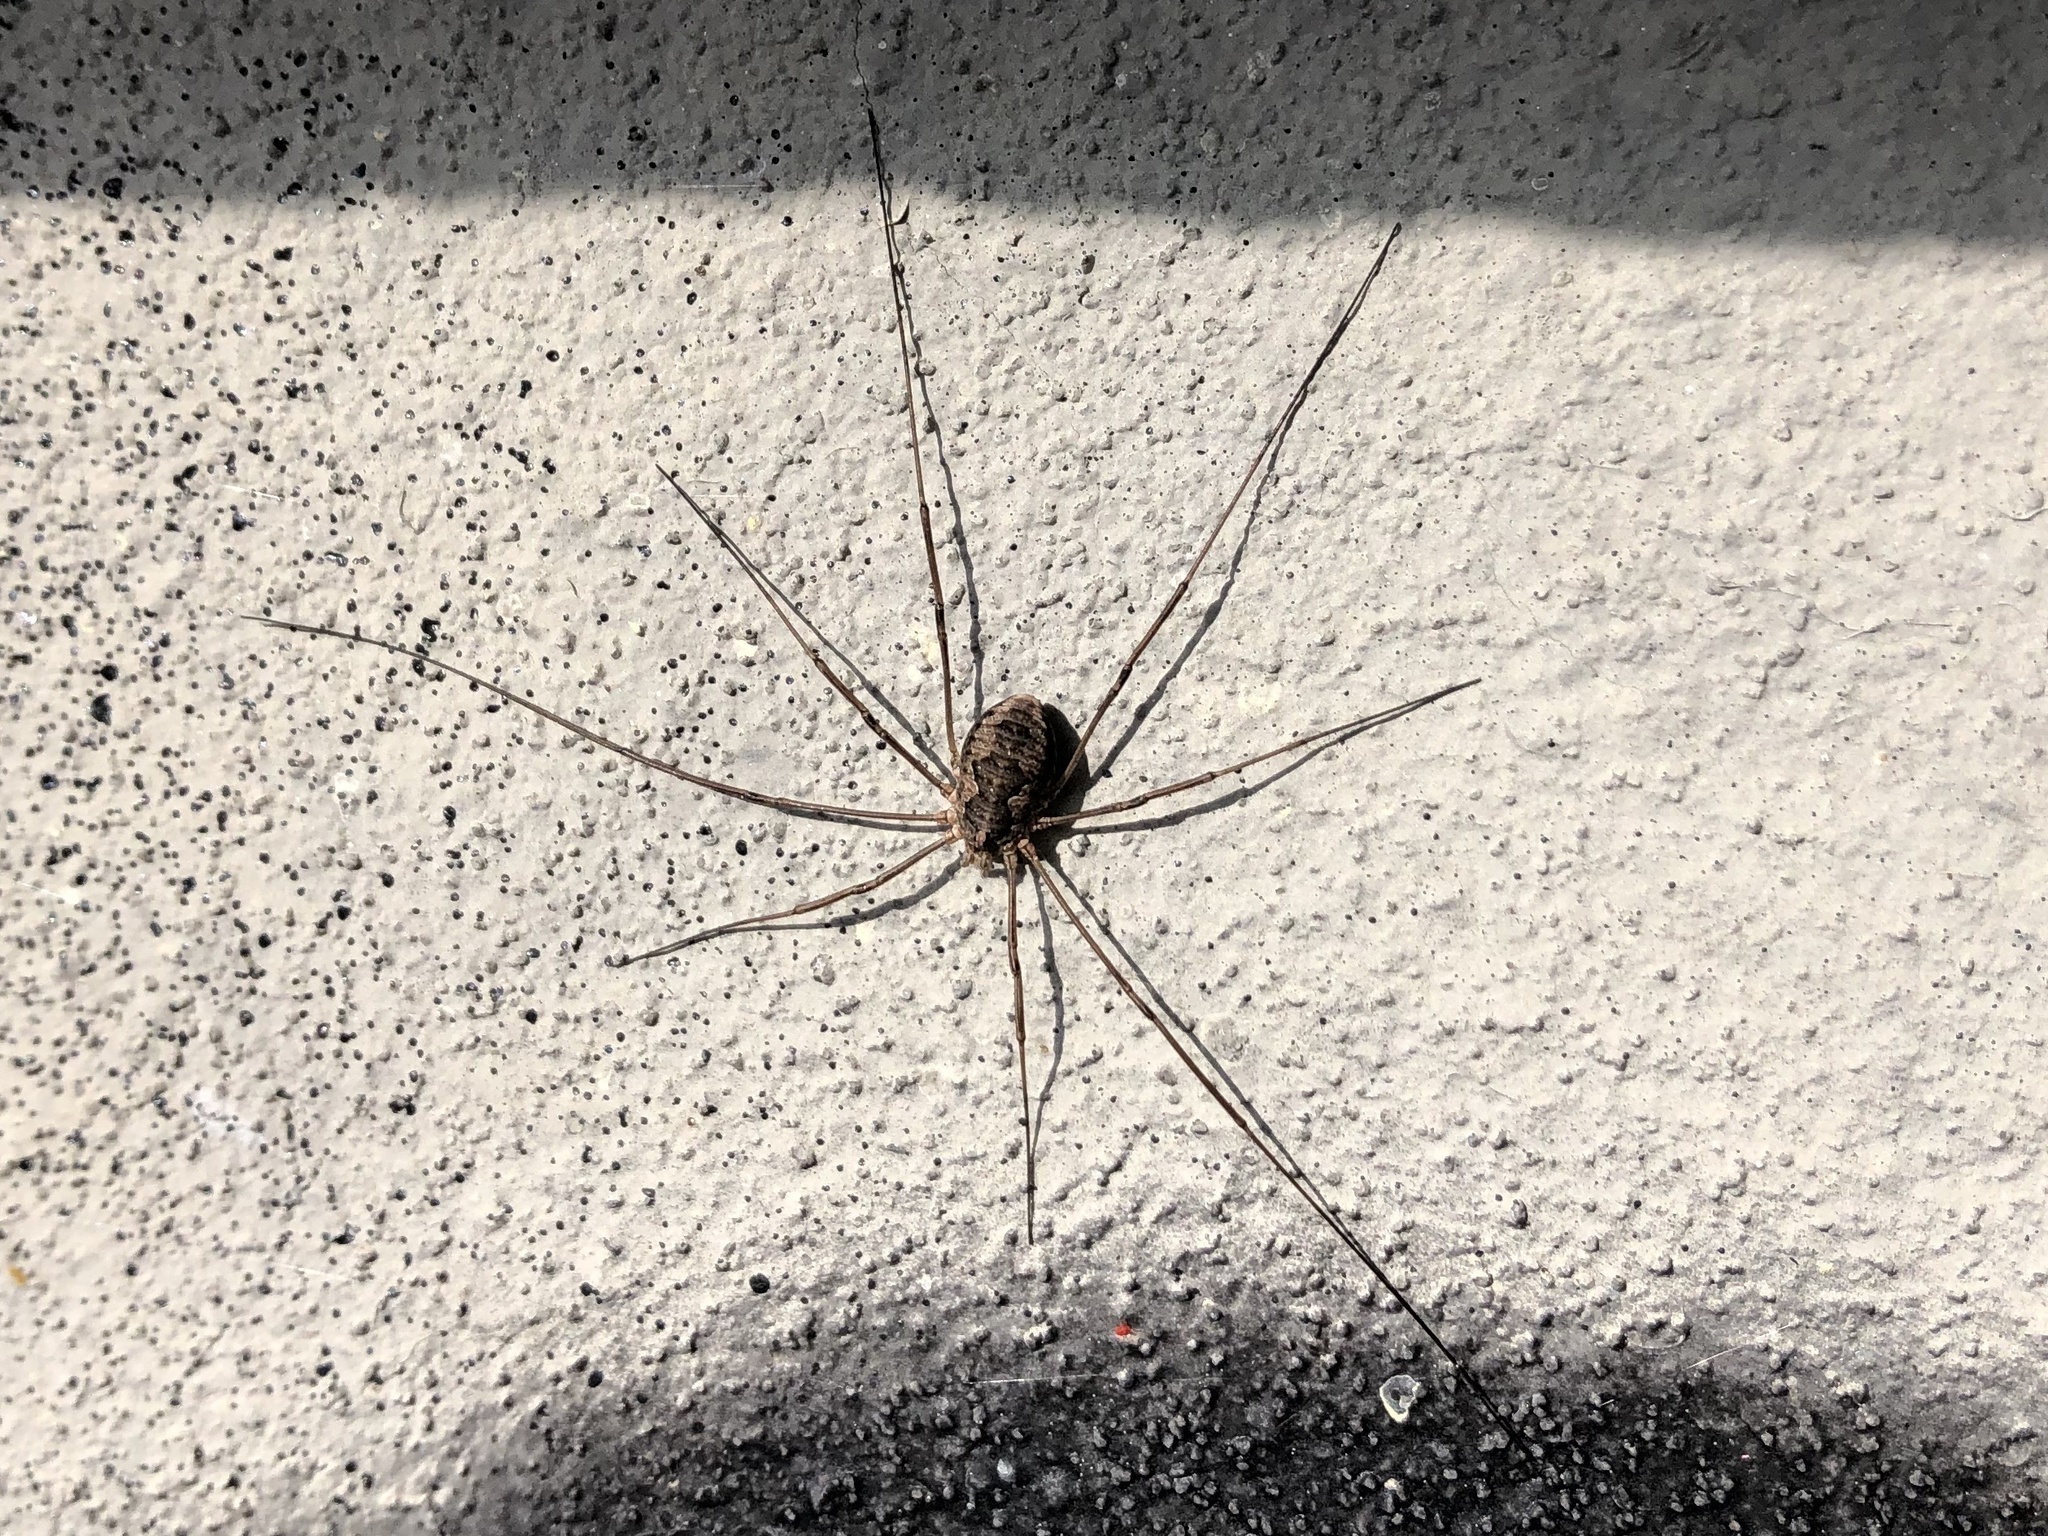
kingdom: Animalia
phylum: Arthropoda
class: Arachnida
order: Opiliones
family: Phalangiidae
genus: Phalangium
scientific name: Phalangium opilio
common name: Daddy longleg
